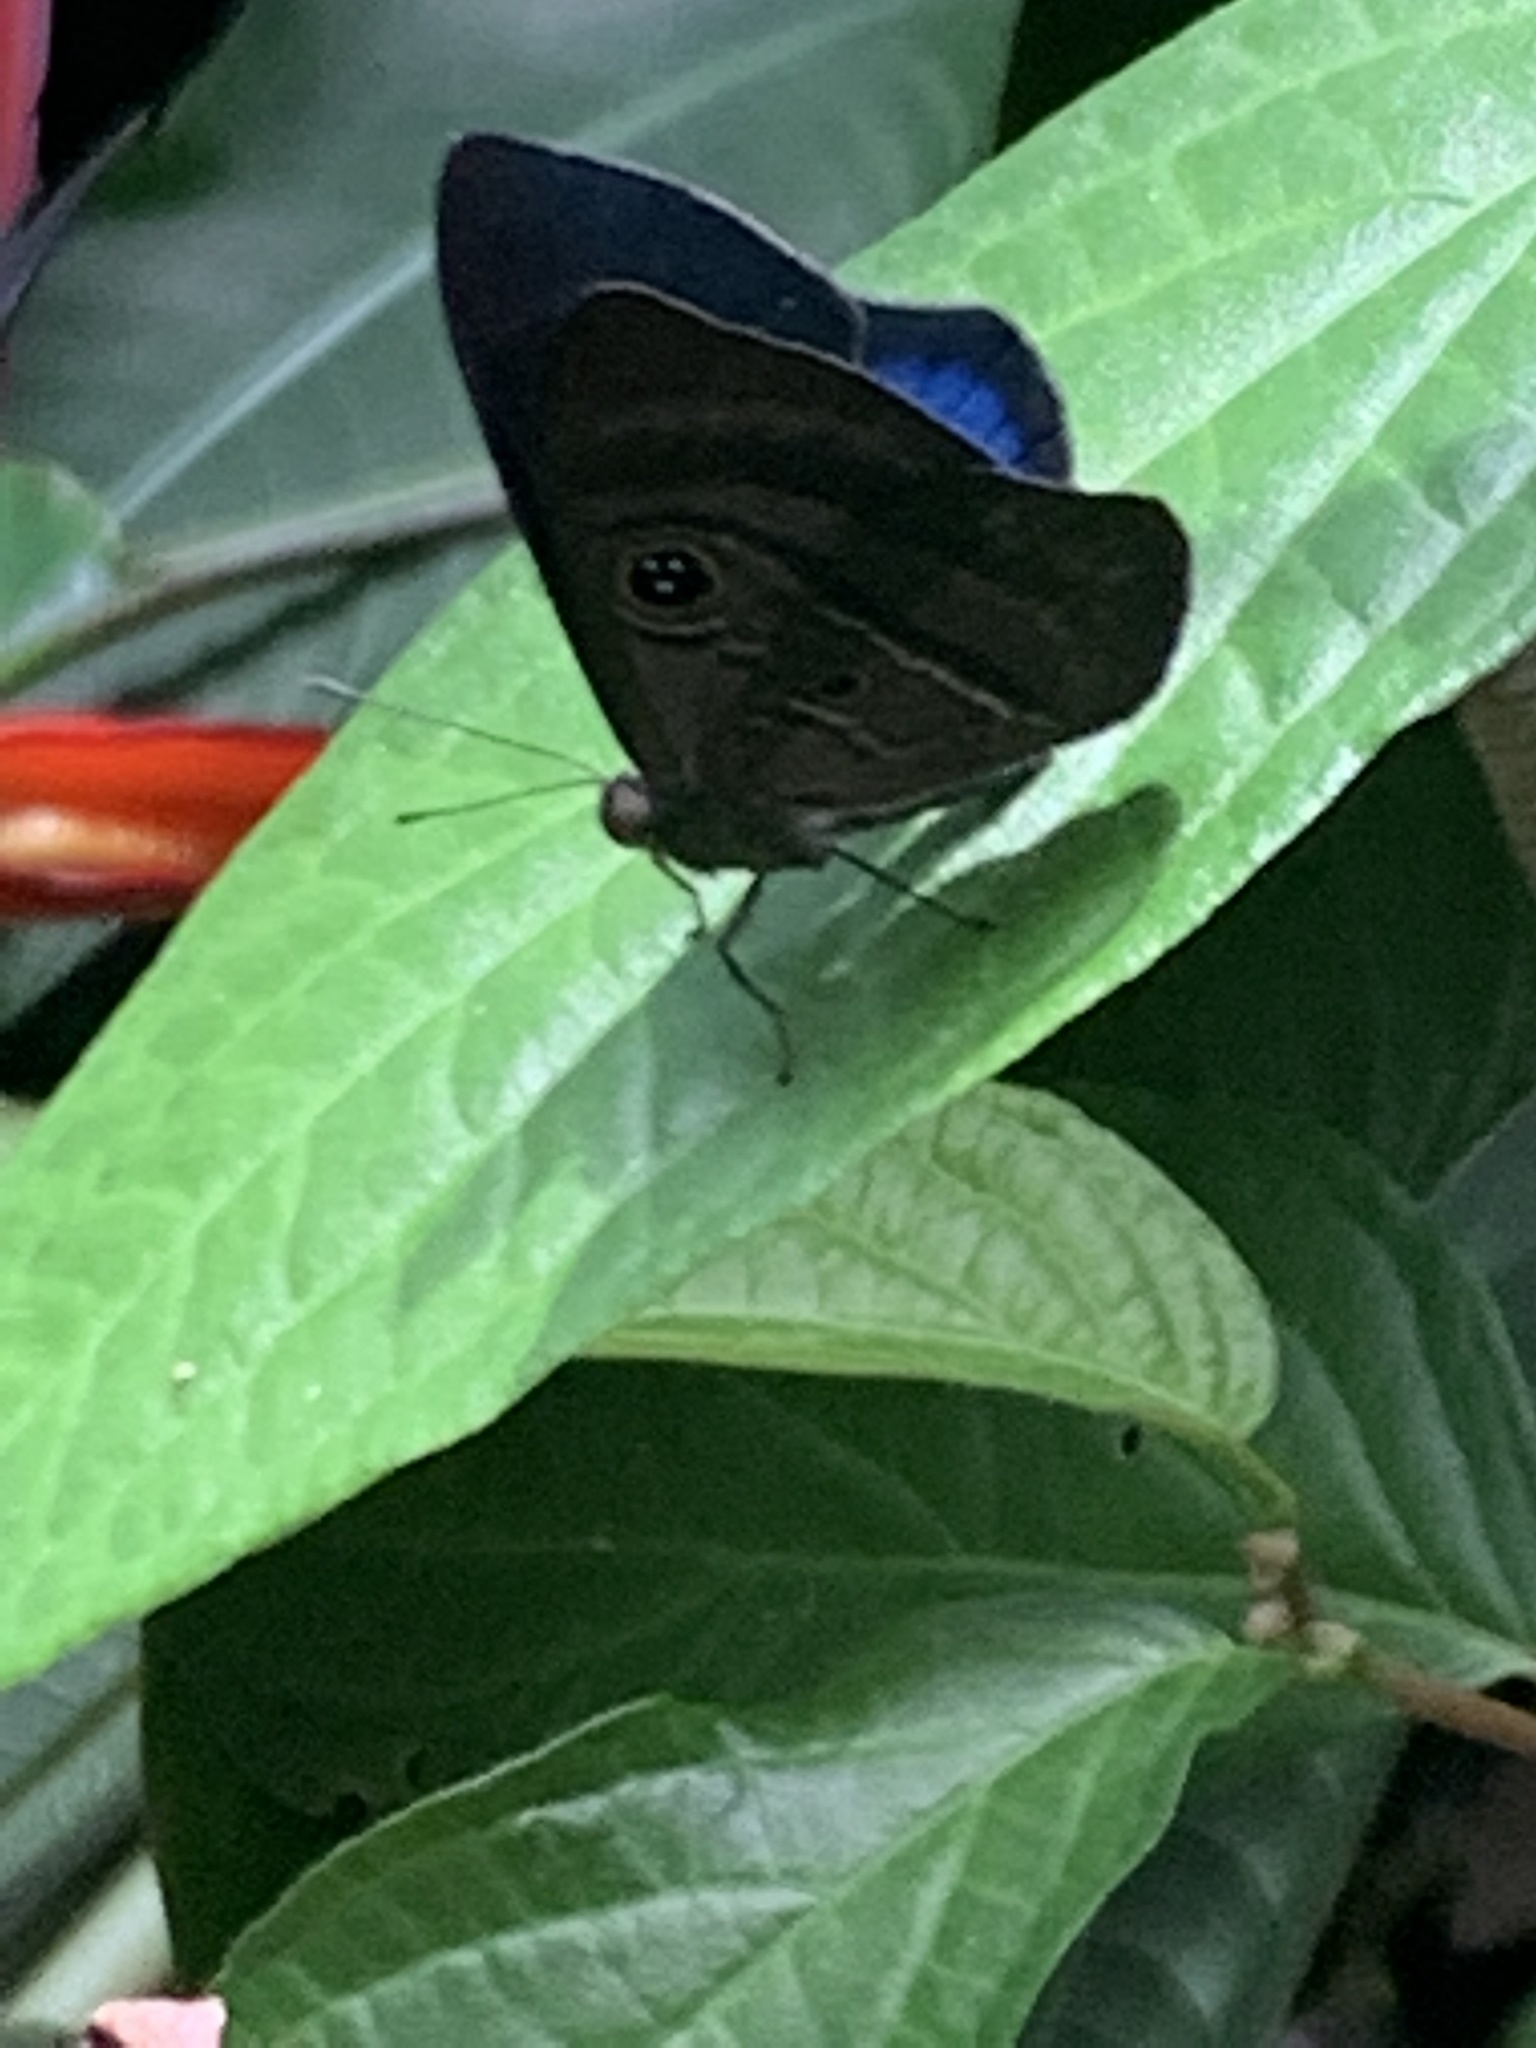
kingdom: Animalia
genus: Mesosemia
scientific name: Mesosemia asa
